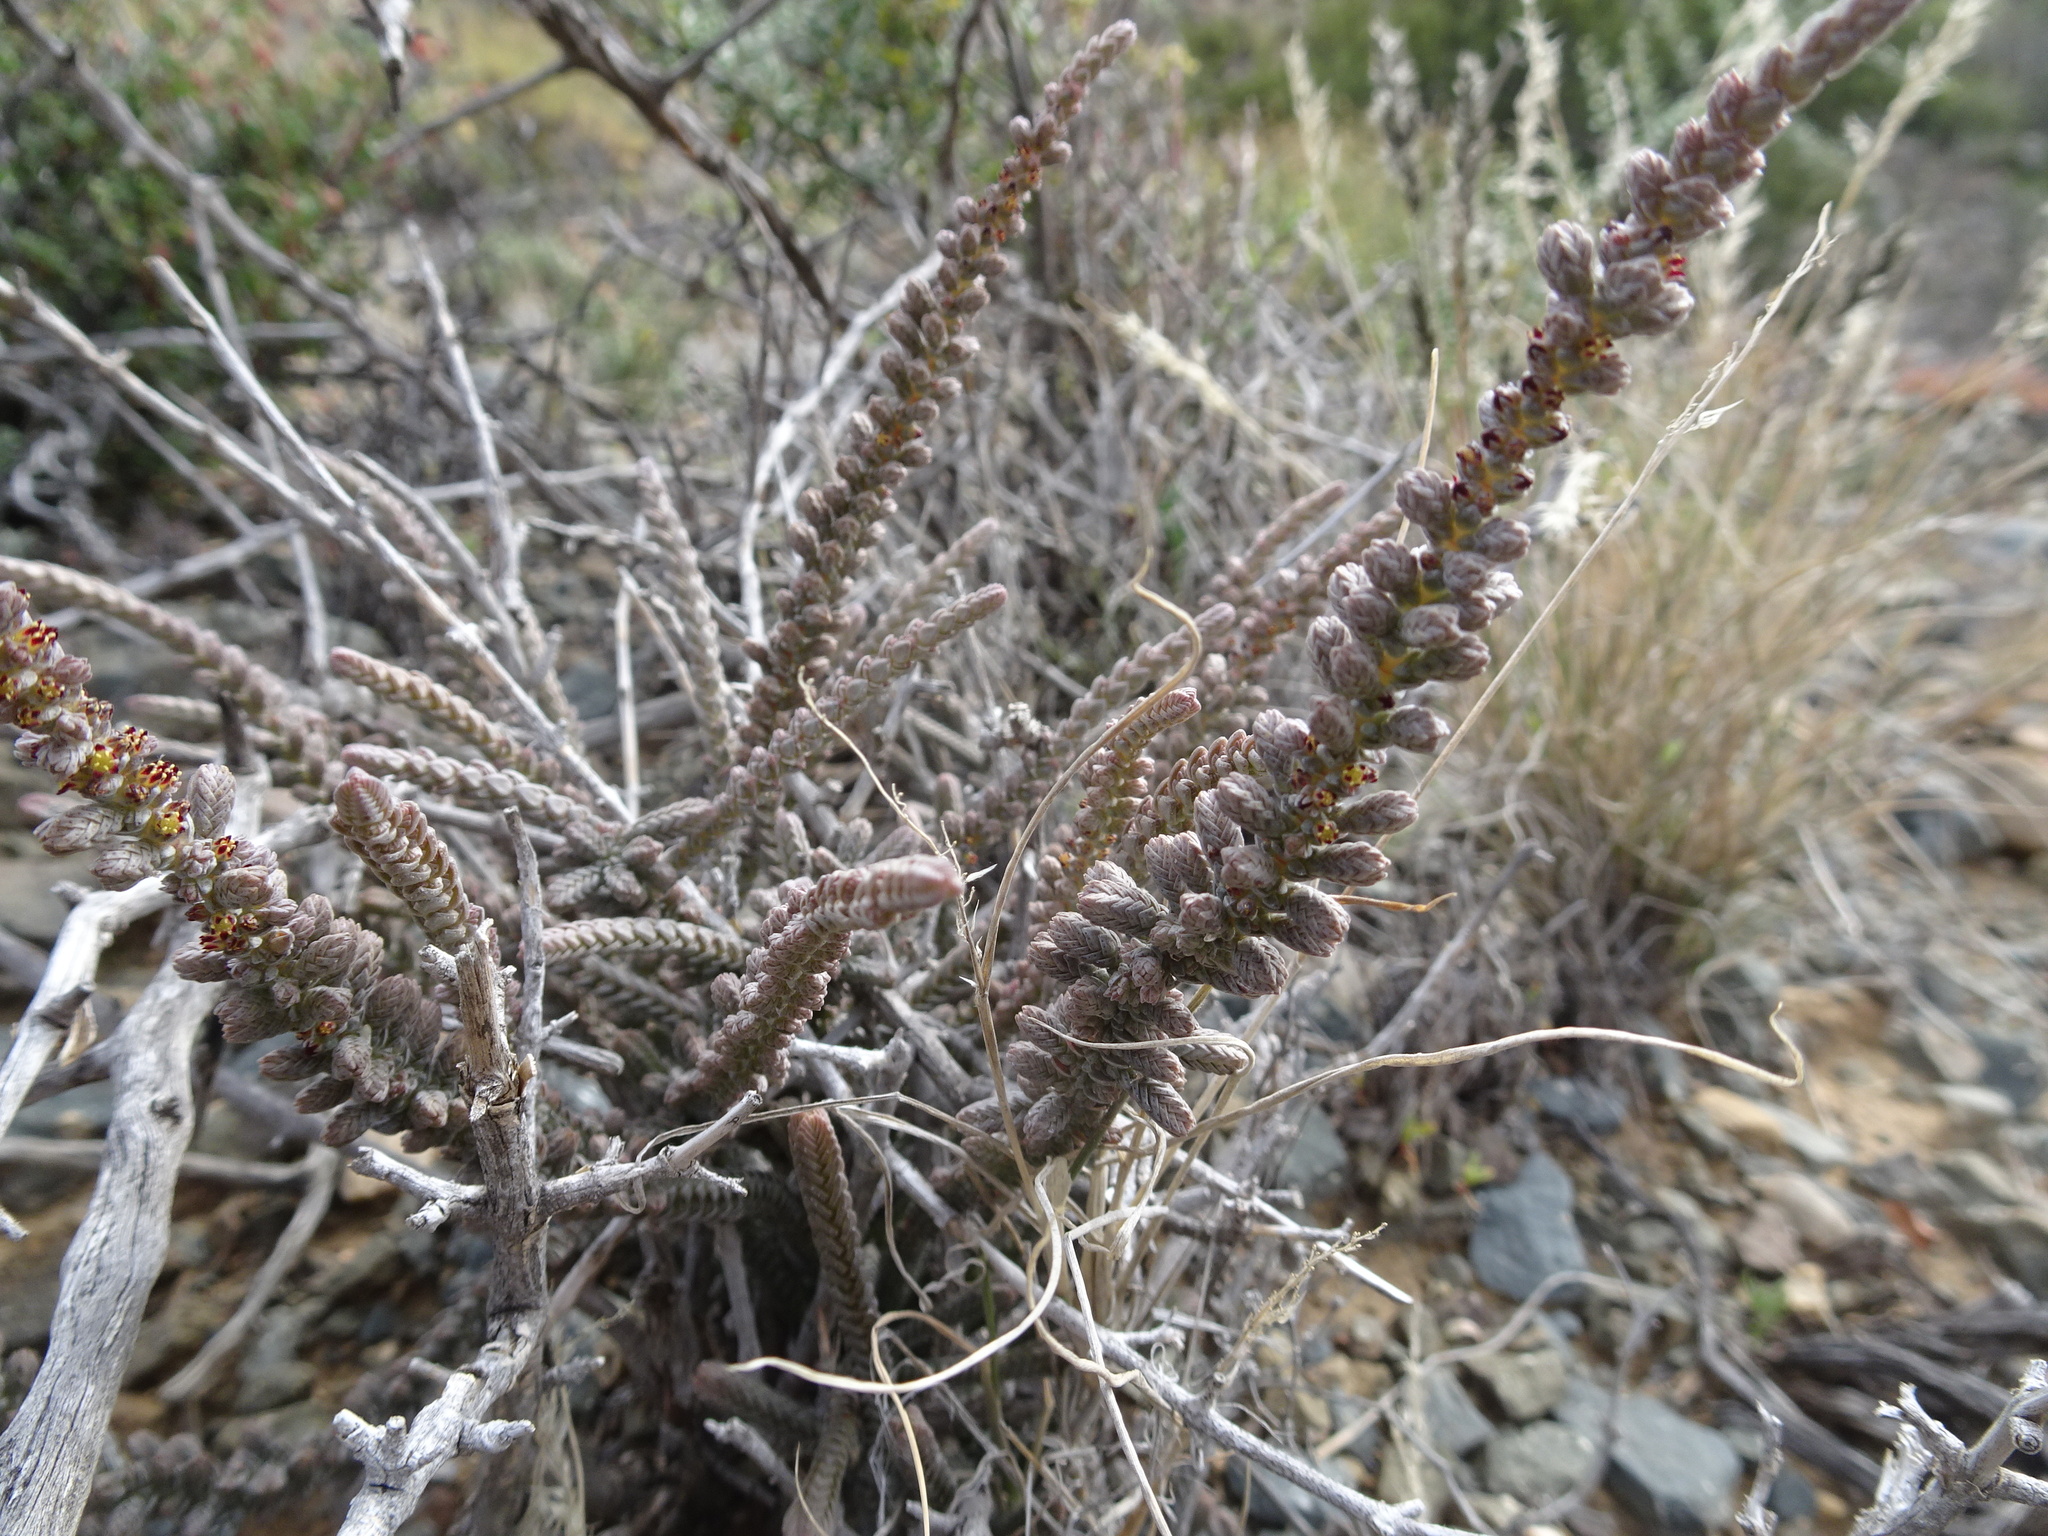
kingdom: Plantae
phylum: Tracheophyta
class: Magnoliopsida
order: Saxifragales
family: Crassulaceae
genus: Crassula
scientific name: Crassula muscosa
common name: Toy-cypress
